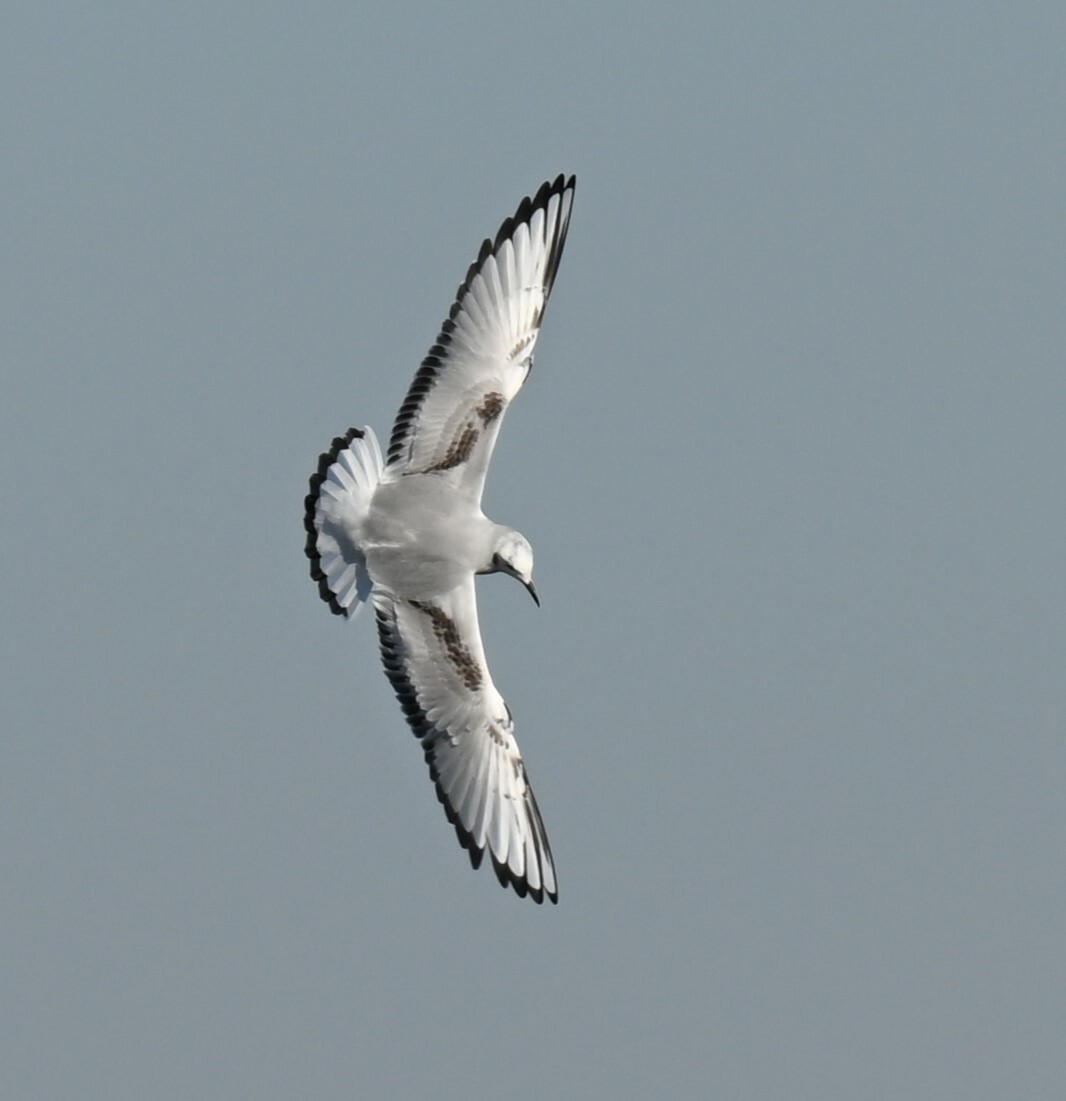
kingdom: Animalia
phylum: Chordata
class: Aves
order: Charadriiformes
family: Laridae
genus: Chroicocephalus
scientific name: Chroicocephalus philadelphia
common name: Bonaparte's gull
